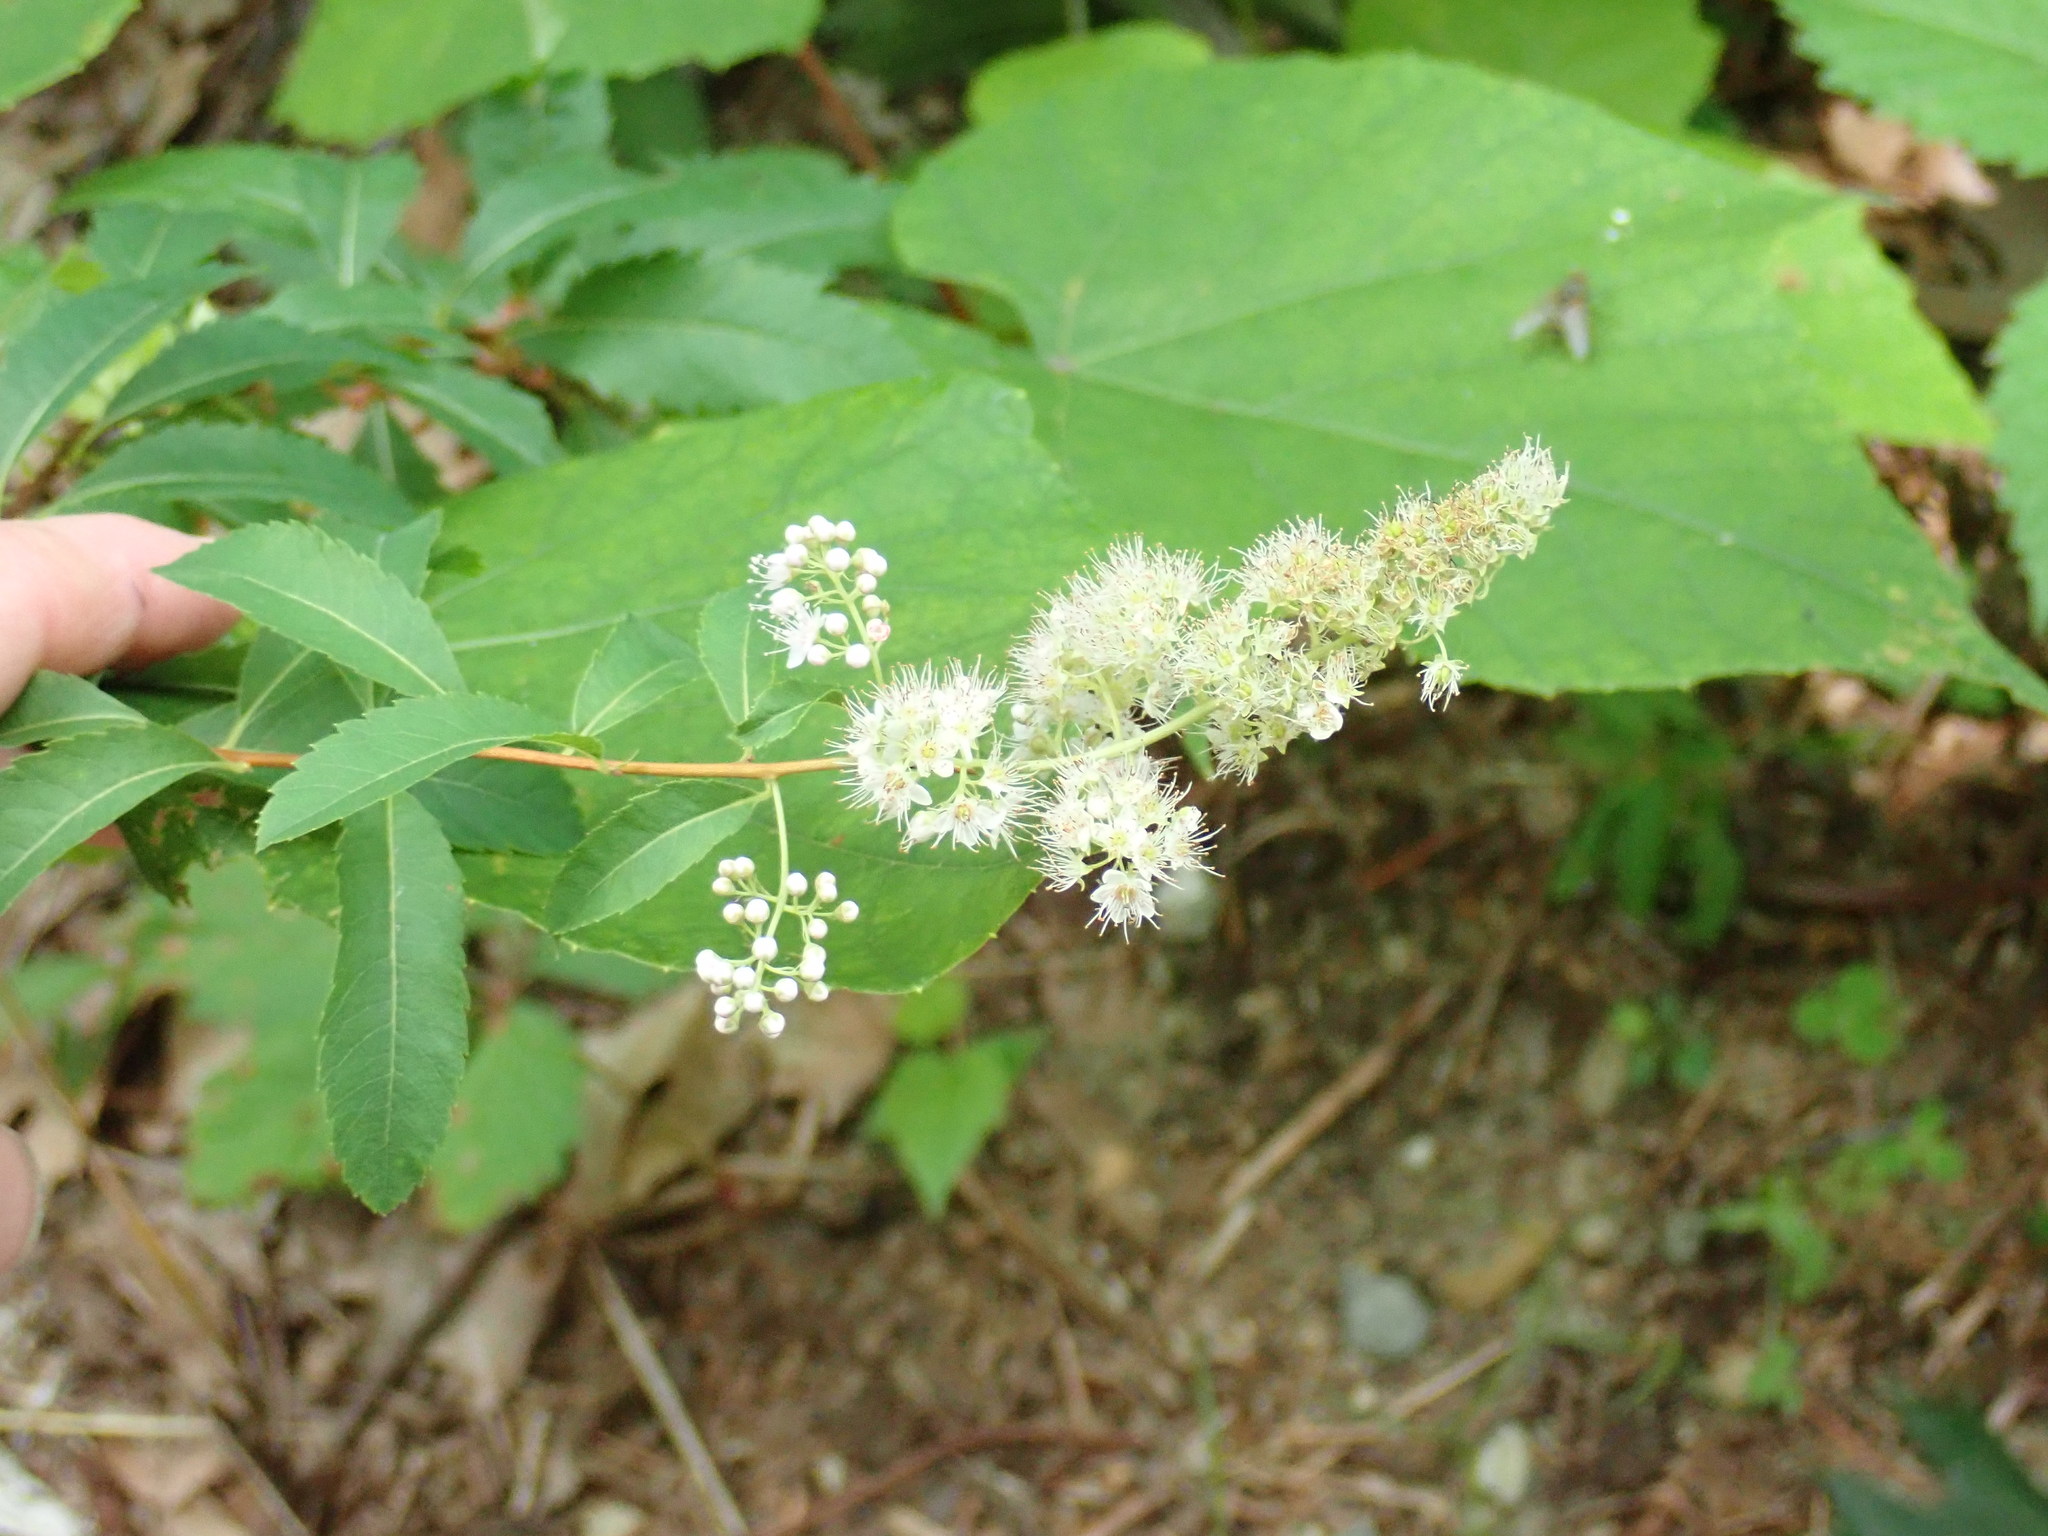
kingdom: Plantae
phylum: Tracheophyta
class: Magnoliopsida
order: Rosales
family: Rosaceae
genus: Spiraea
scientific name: Spiraea alba
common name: Pale bridewort
